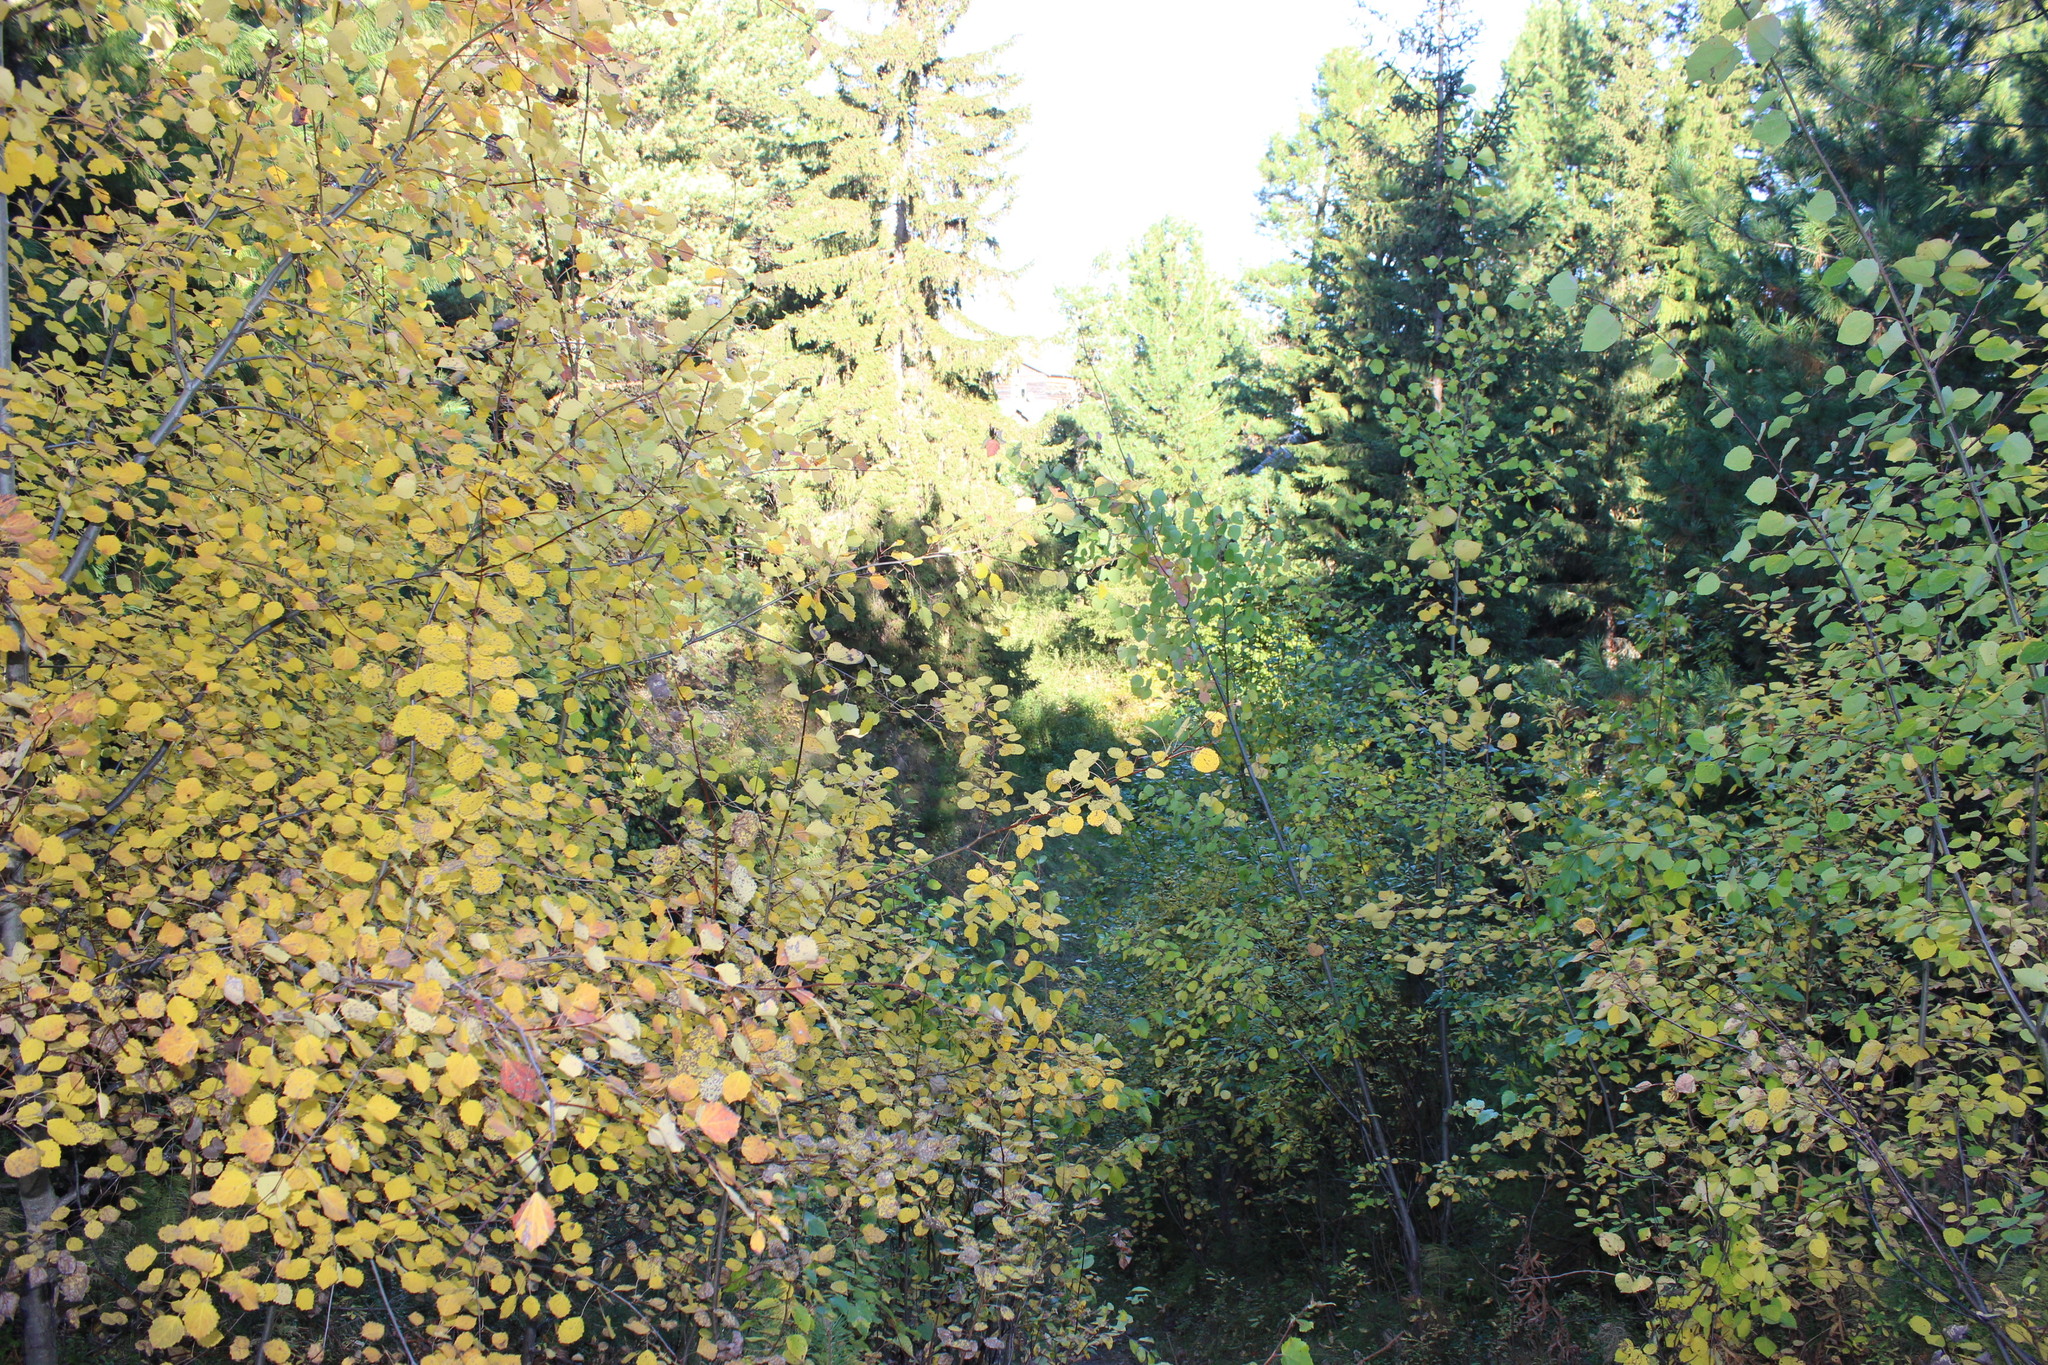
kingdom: Plantae
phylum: Tracheophyta
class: Magnoliopsida
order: Malpighiales
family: Salicaceae
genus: Populus
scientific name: Populus tremula
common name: European aspen
